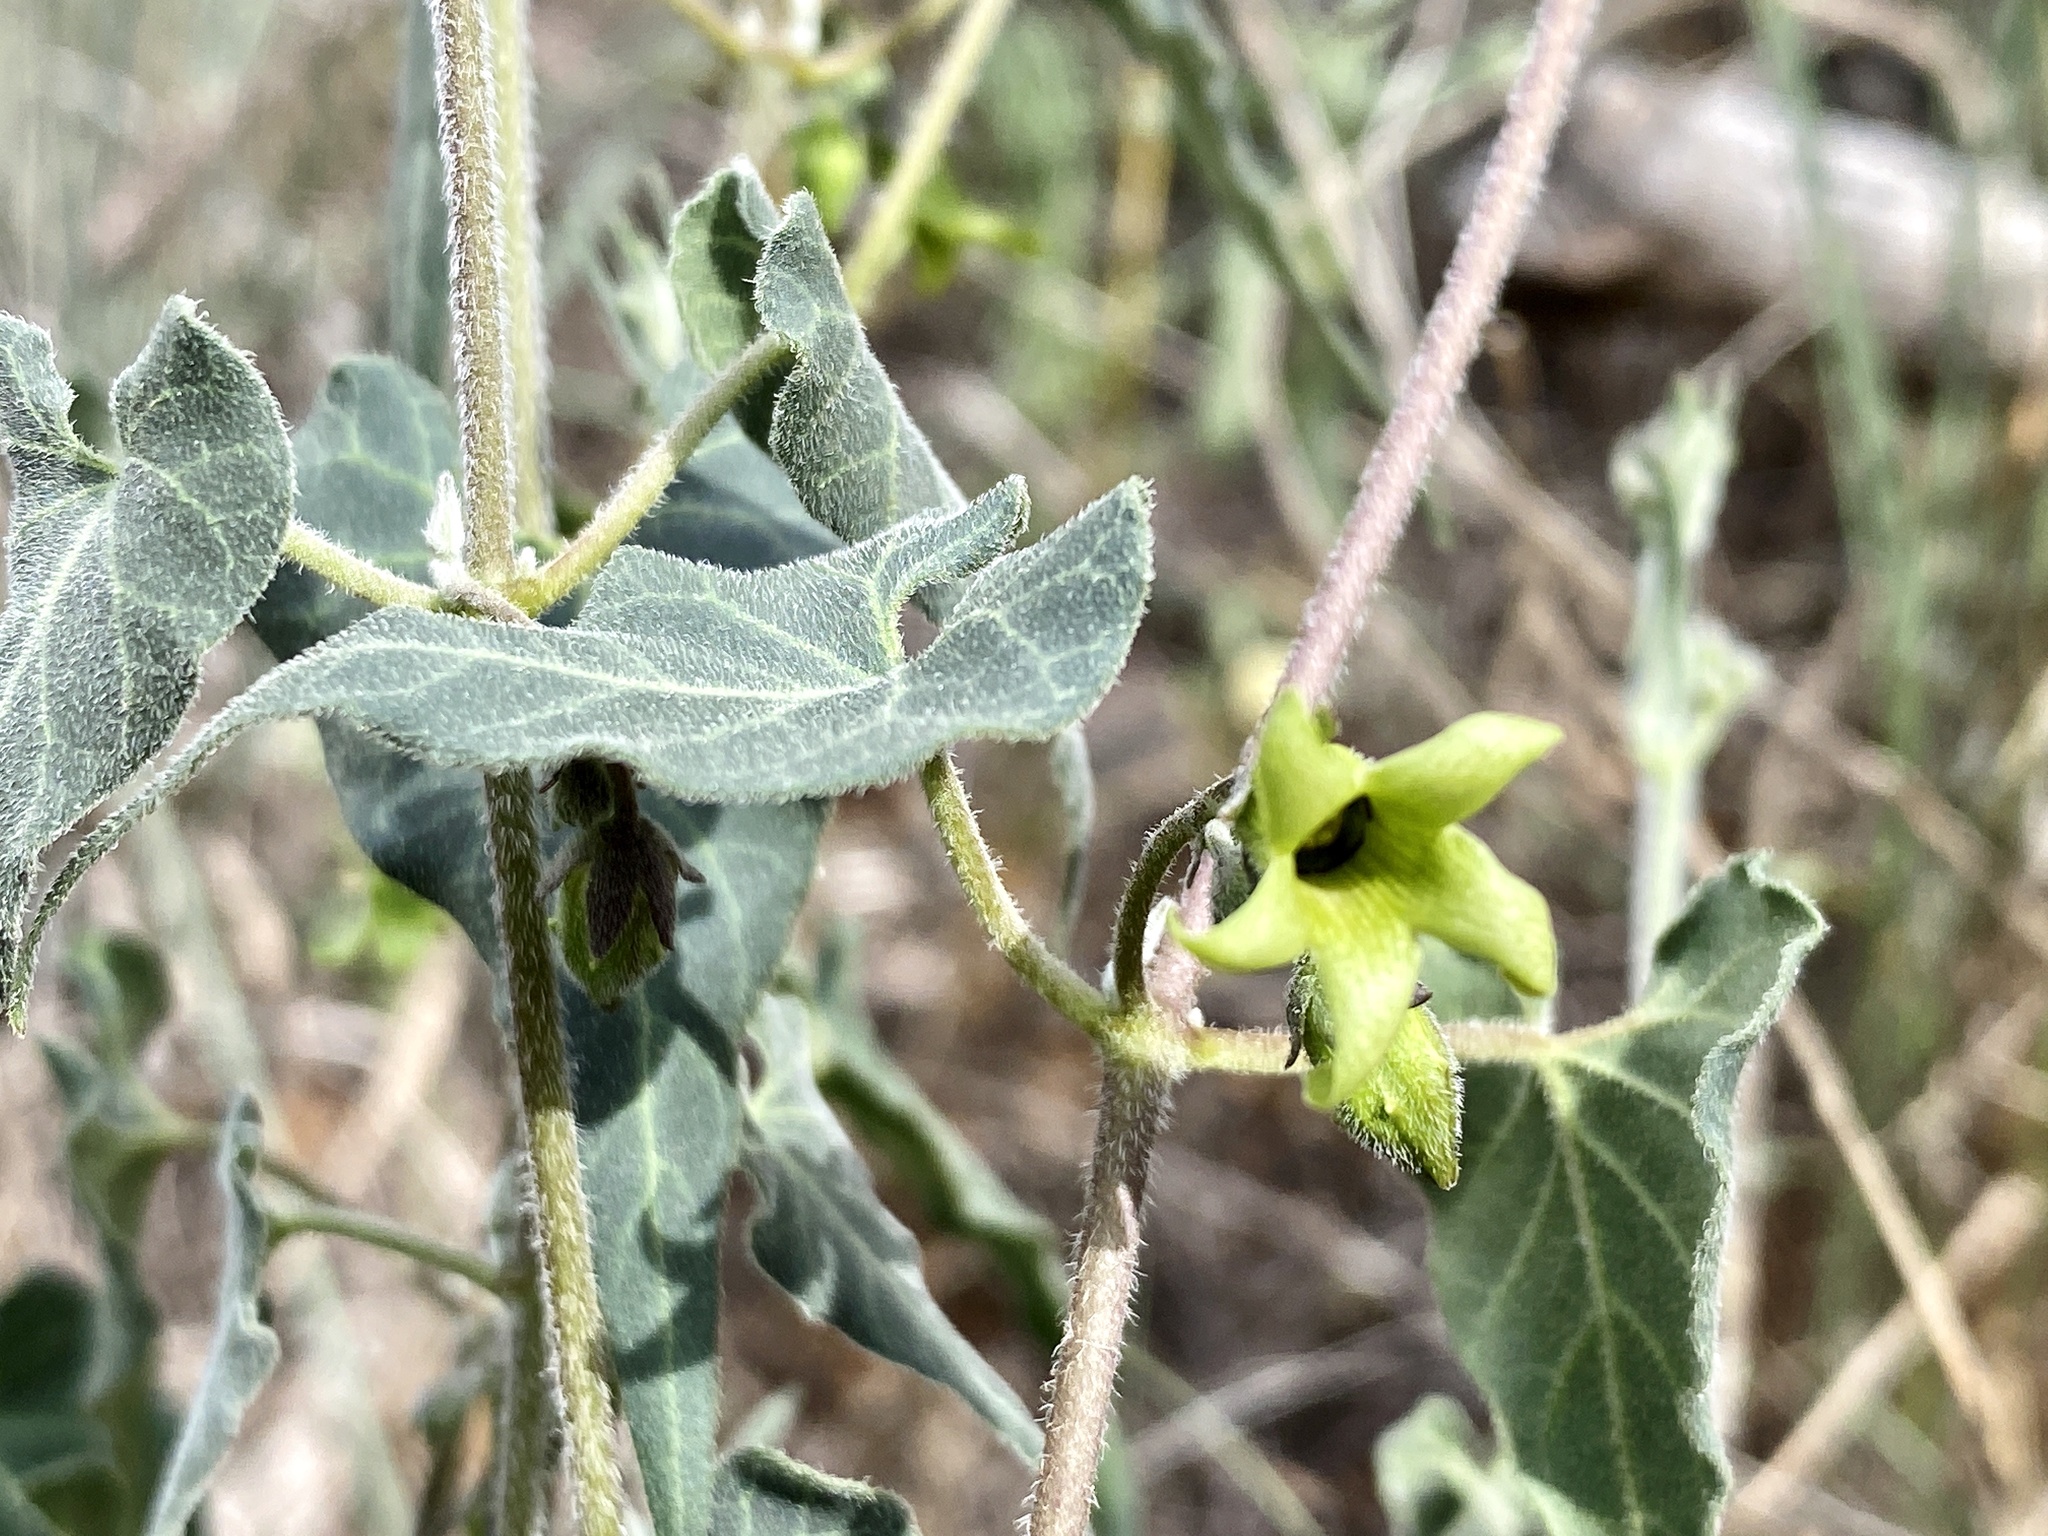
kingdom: Plantae
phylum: Tracheophyta
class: Magnoliopsida
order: Gentianales
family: Apocynaceae
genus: Chthamalia
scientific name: Chthamalia producta
